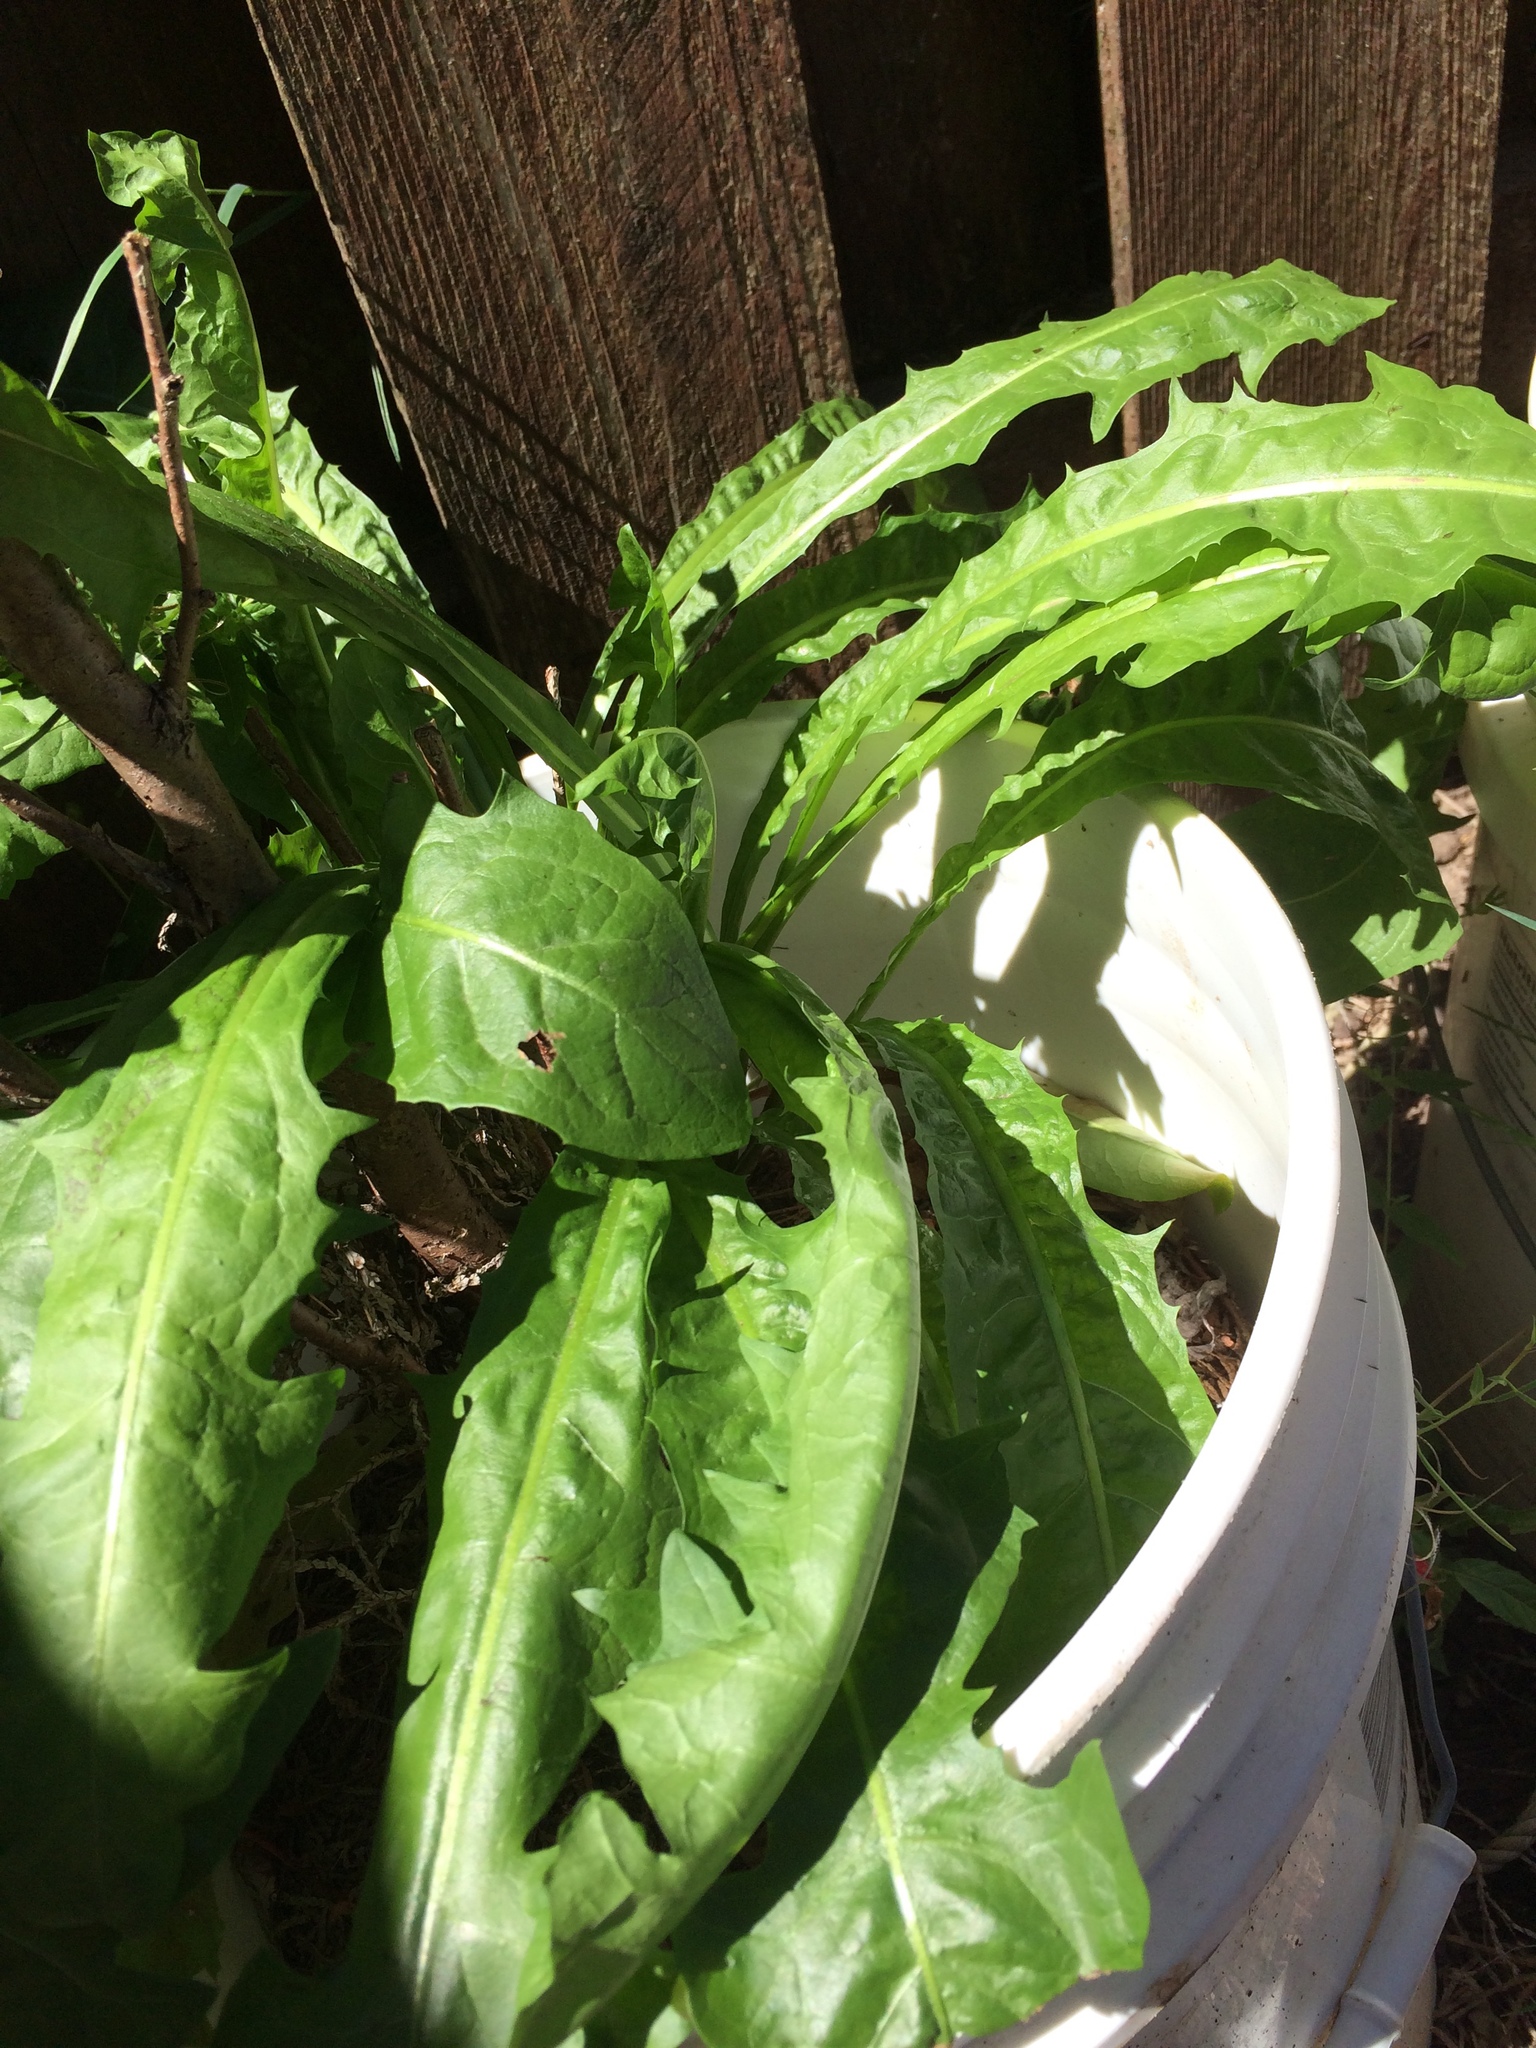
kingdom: Plantae
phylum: Tracheophyta
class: Magnoliopsida
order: Asterales
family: Asteraceae
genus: Taraxacum
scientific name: Taraxacum officinale
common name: Common dandelion
